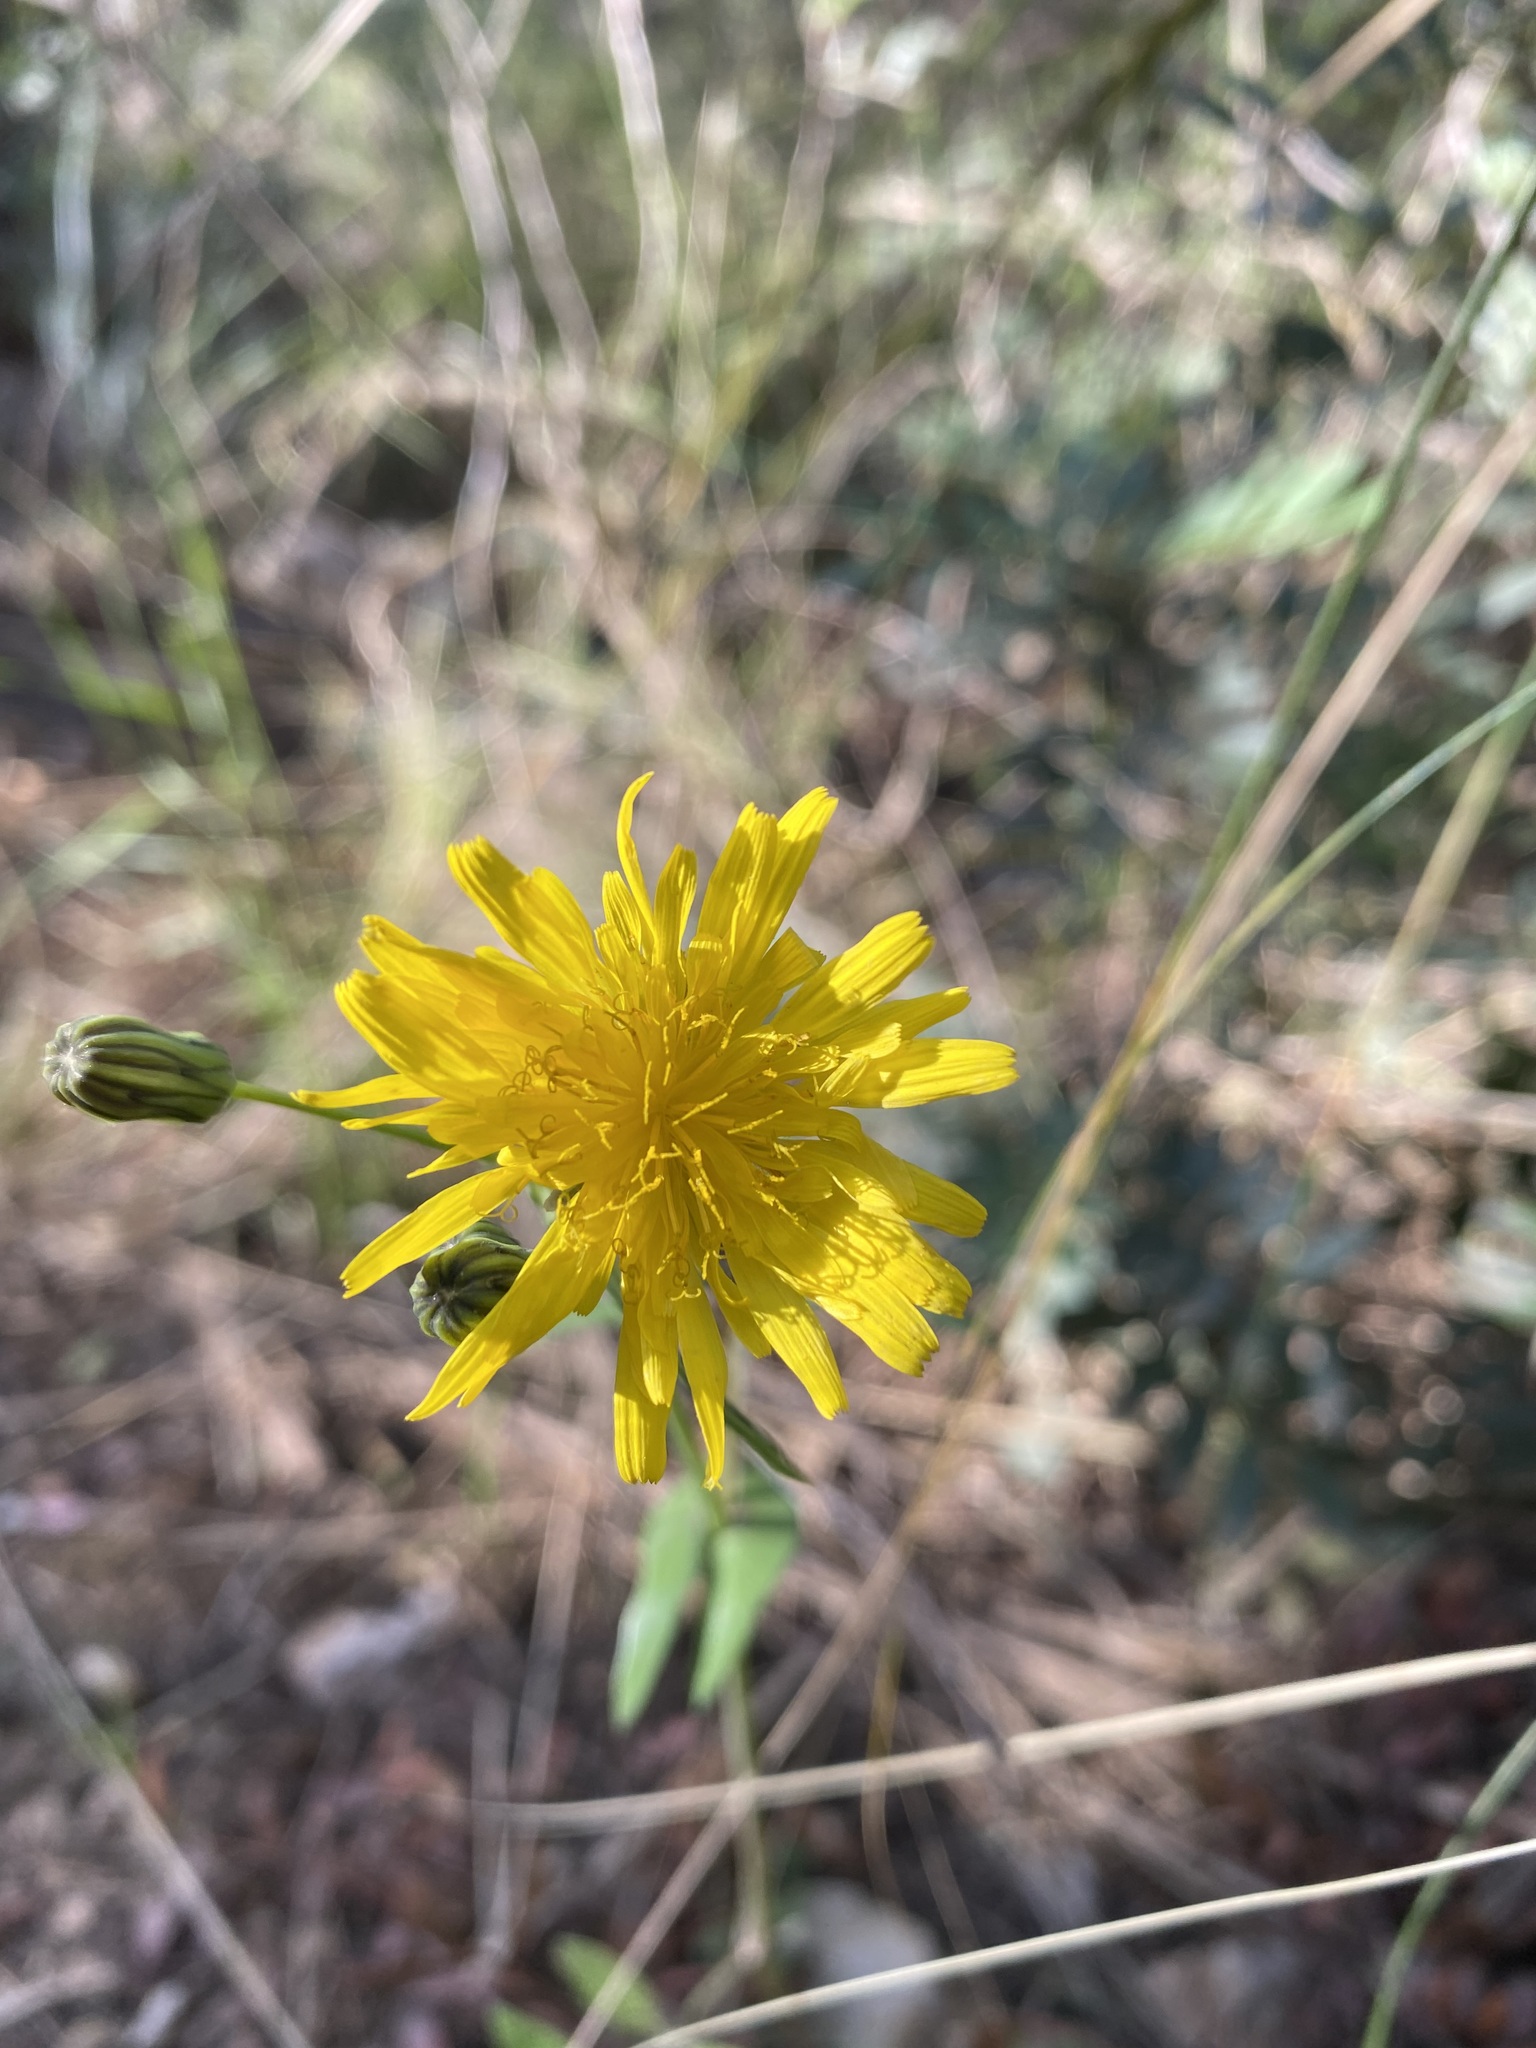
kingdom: Plantae
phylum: Tracheophyta
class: Magnoliopsida
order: Asterales
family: Asteraceae
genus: Sonchus
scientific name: Sonchus tenerrimus
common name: Clammy sowthistle
